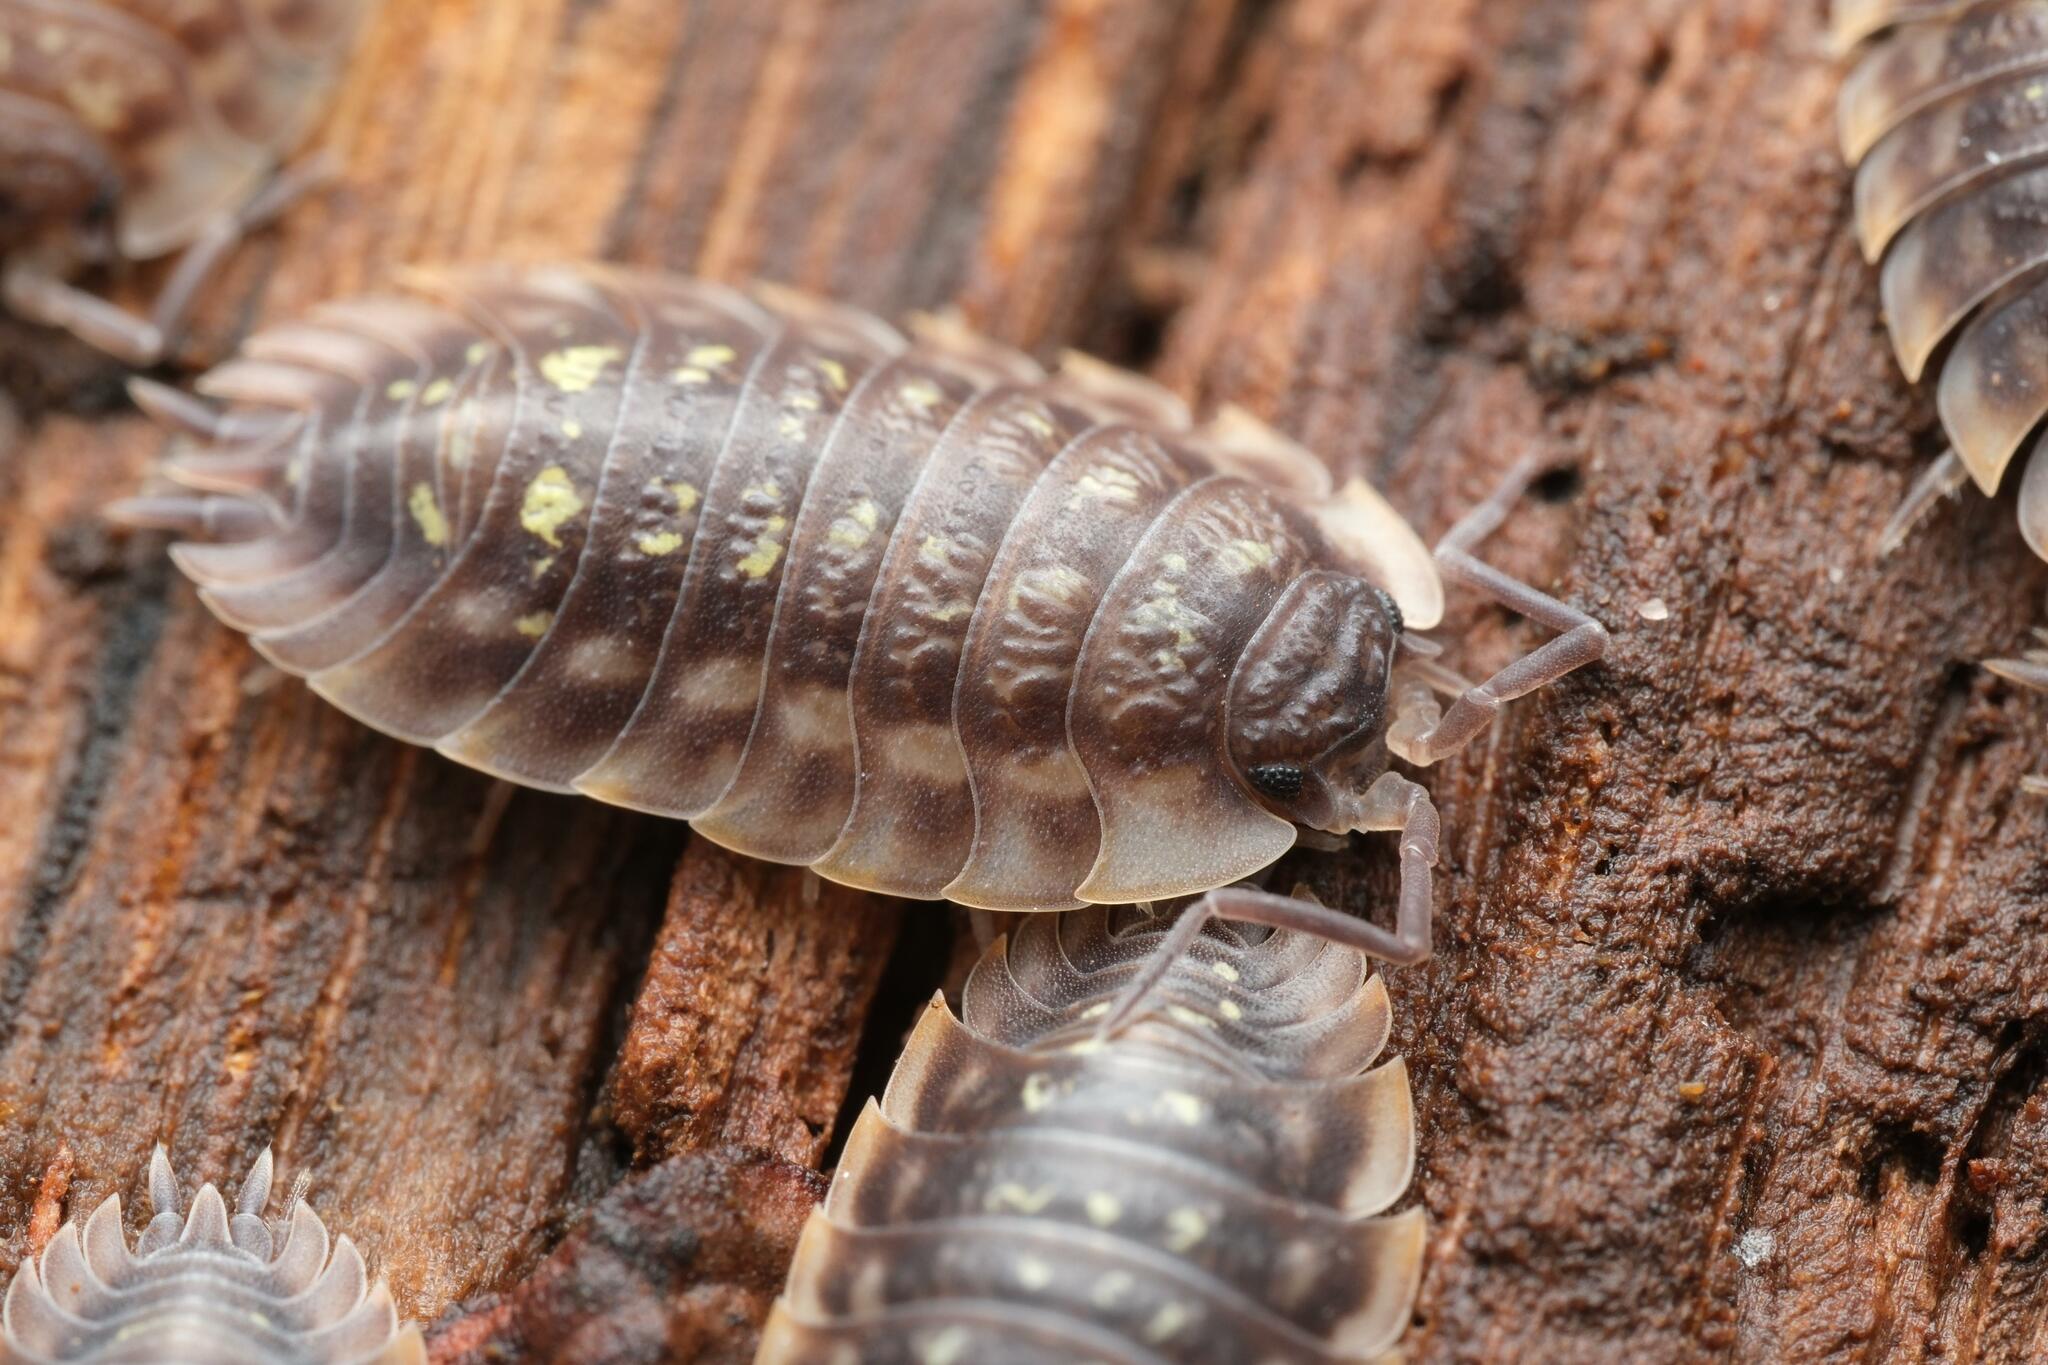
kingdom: Animalia
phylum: Arthropoda
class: Malacostraca
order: Isopoda
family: Oniscidae
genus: Oniscus
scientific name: Oniscus asellus
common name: Common shiny woodlouse
